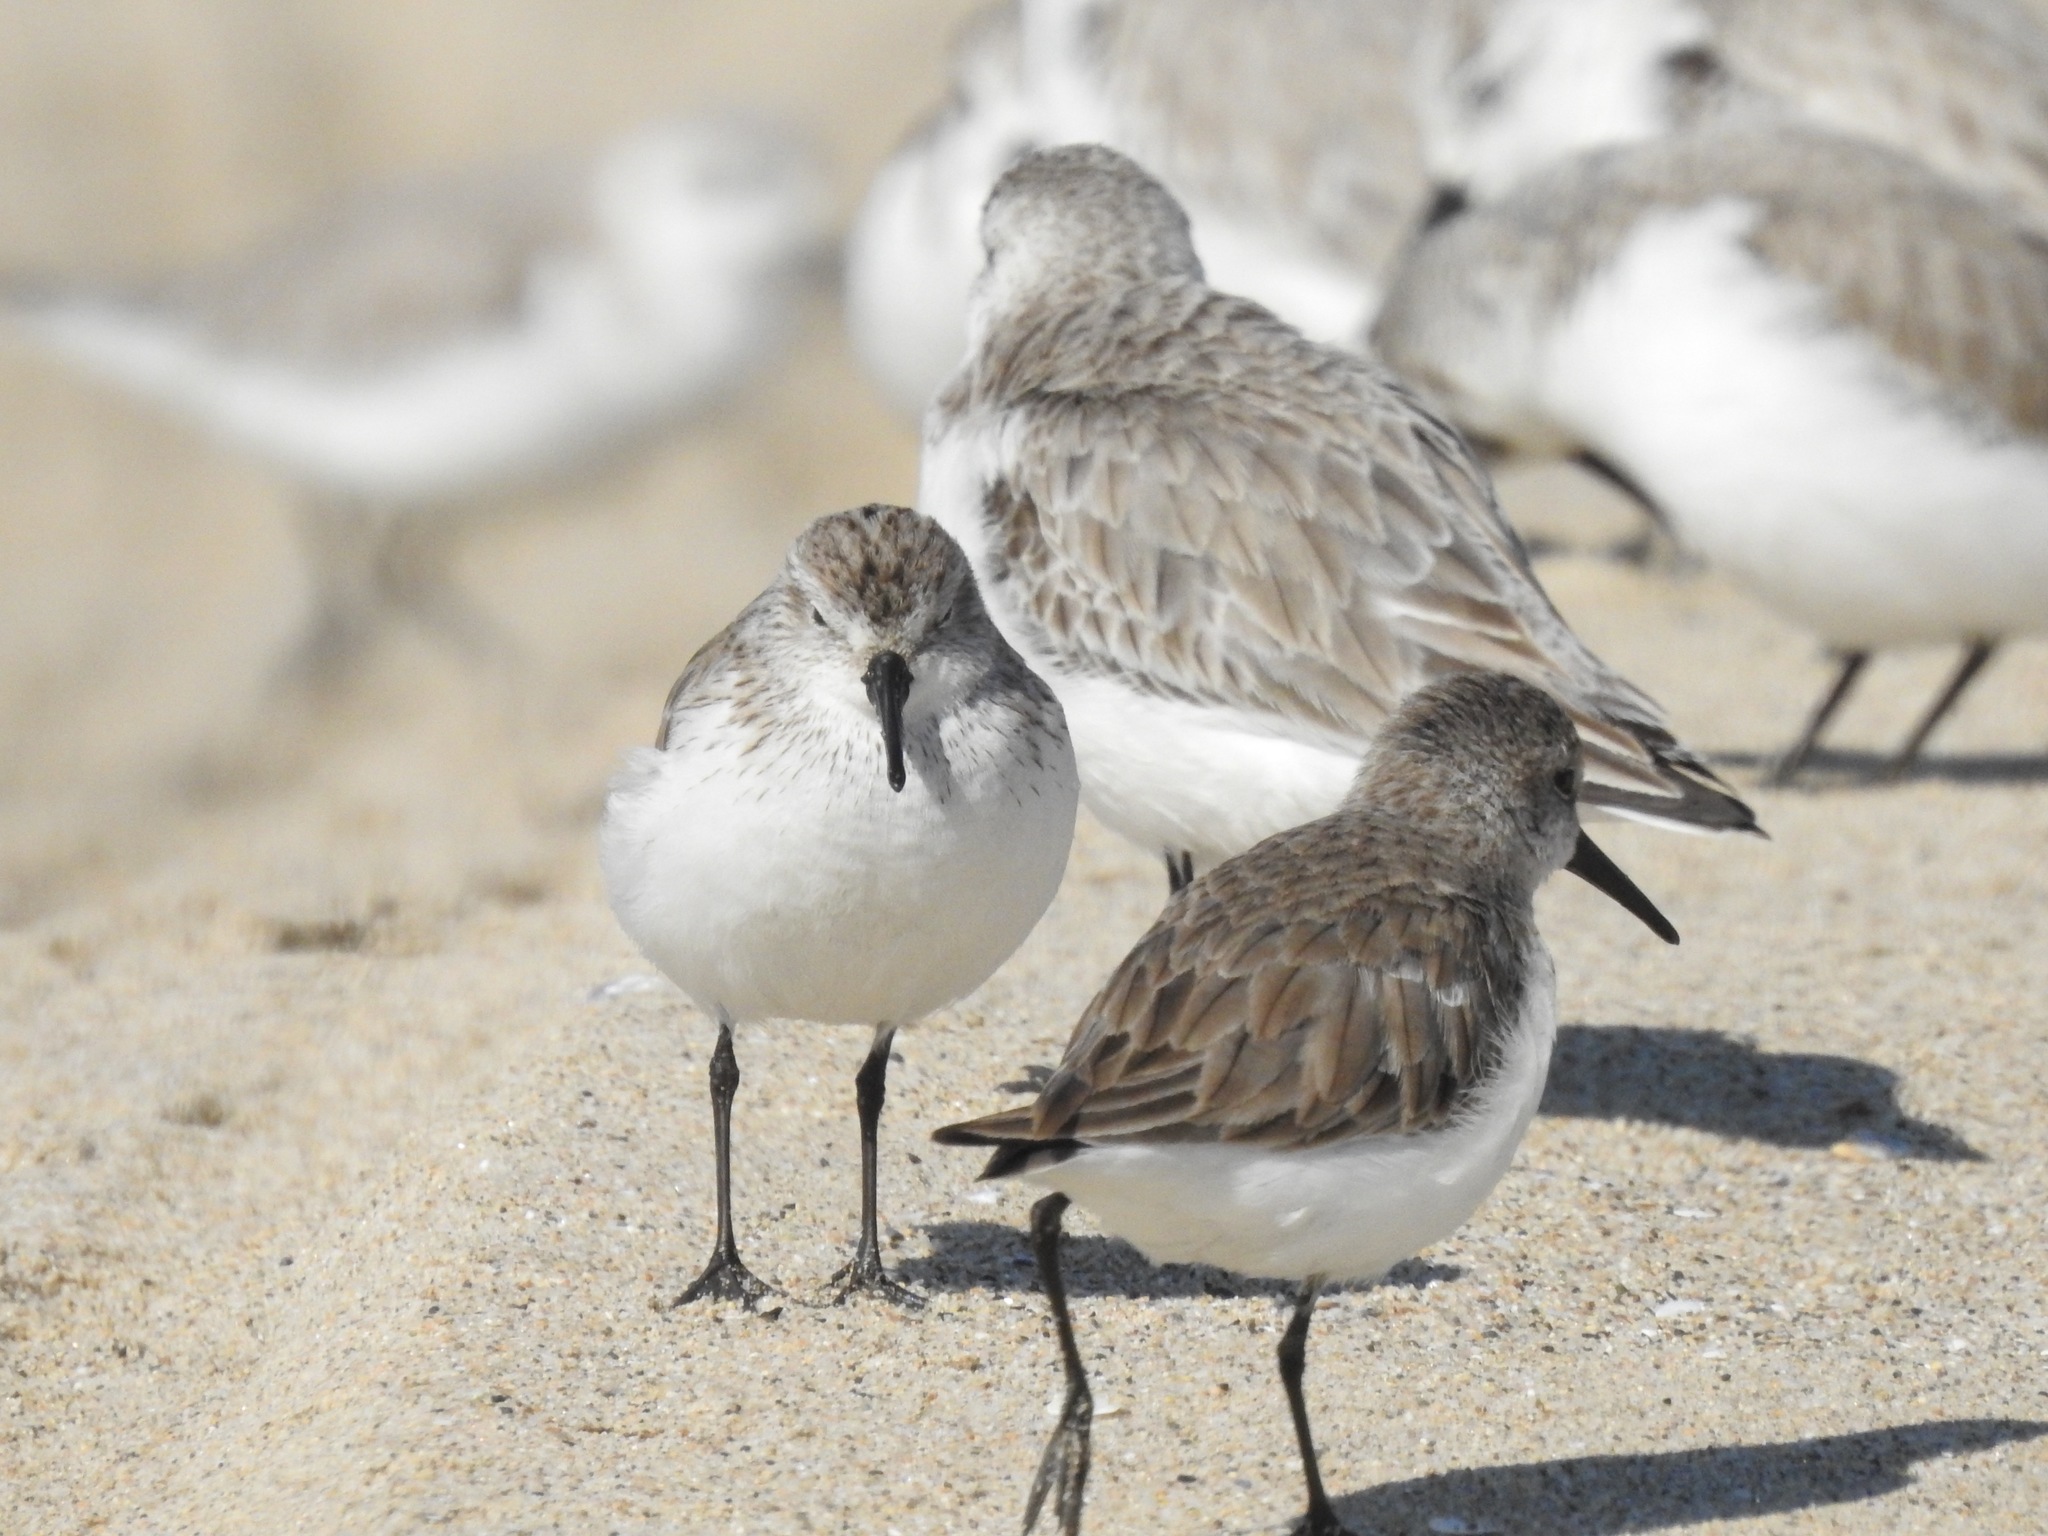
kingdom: Animalia
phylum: Chordata
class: Aves
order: Charadriiformes
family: Scolopacidae
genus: Calidris
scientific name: Calidris mauri
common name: Western sandpiper
